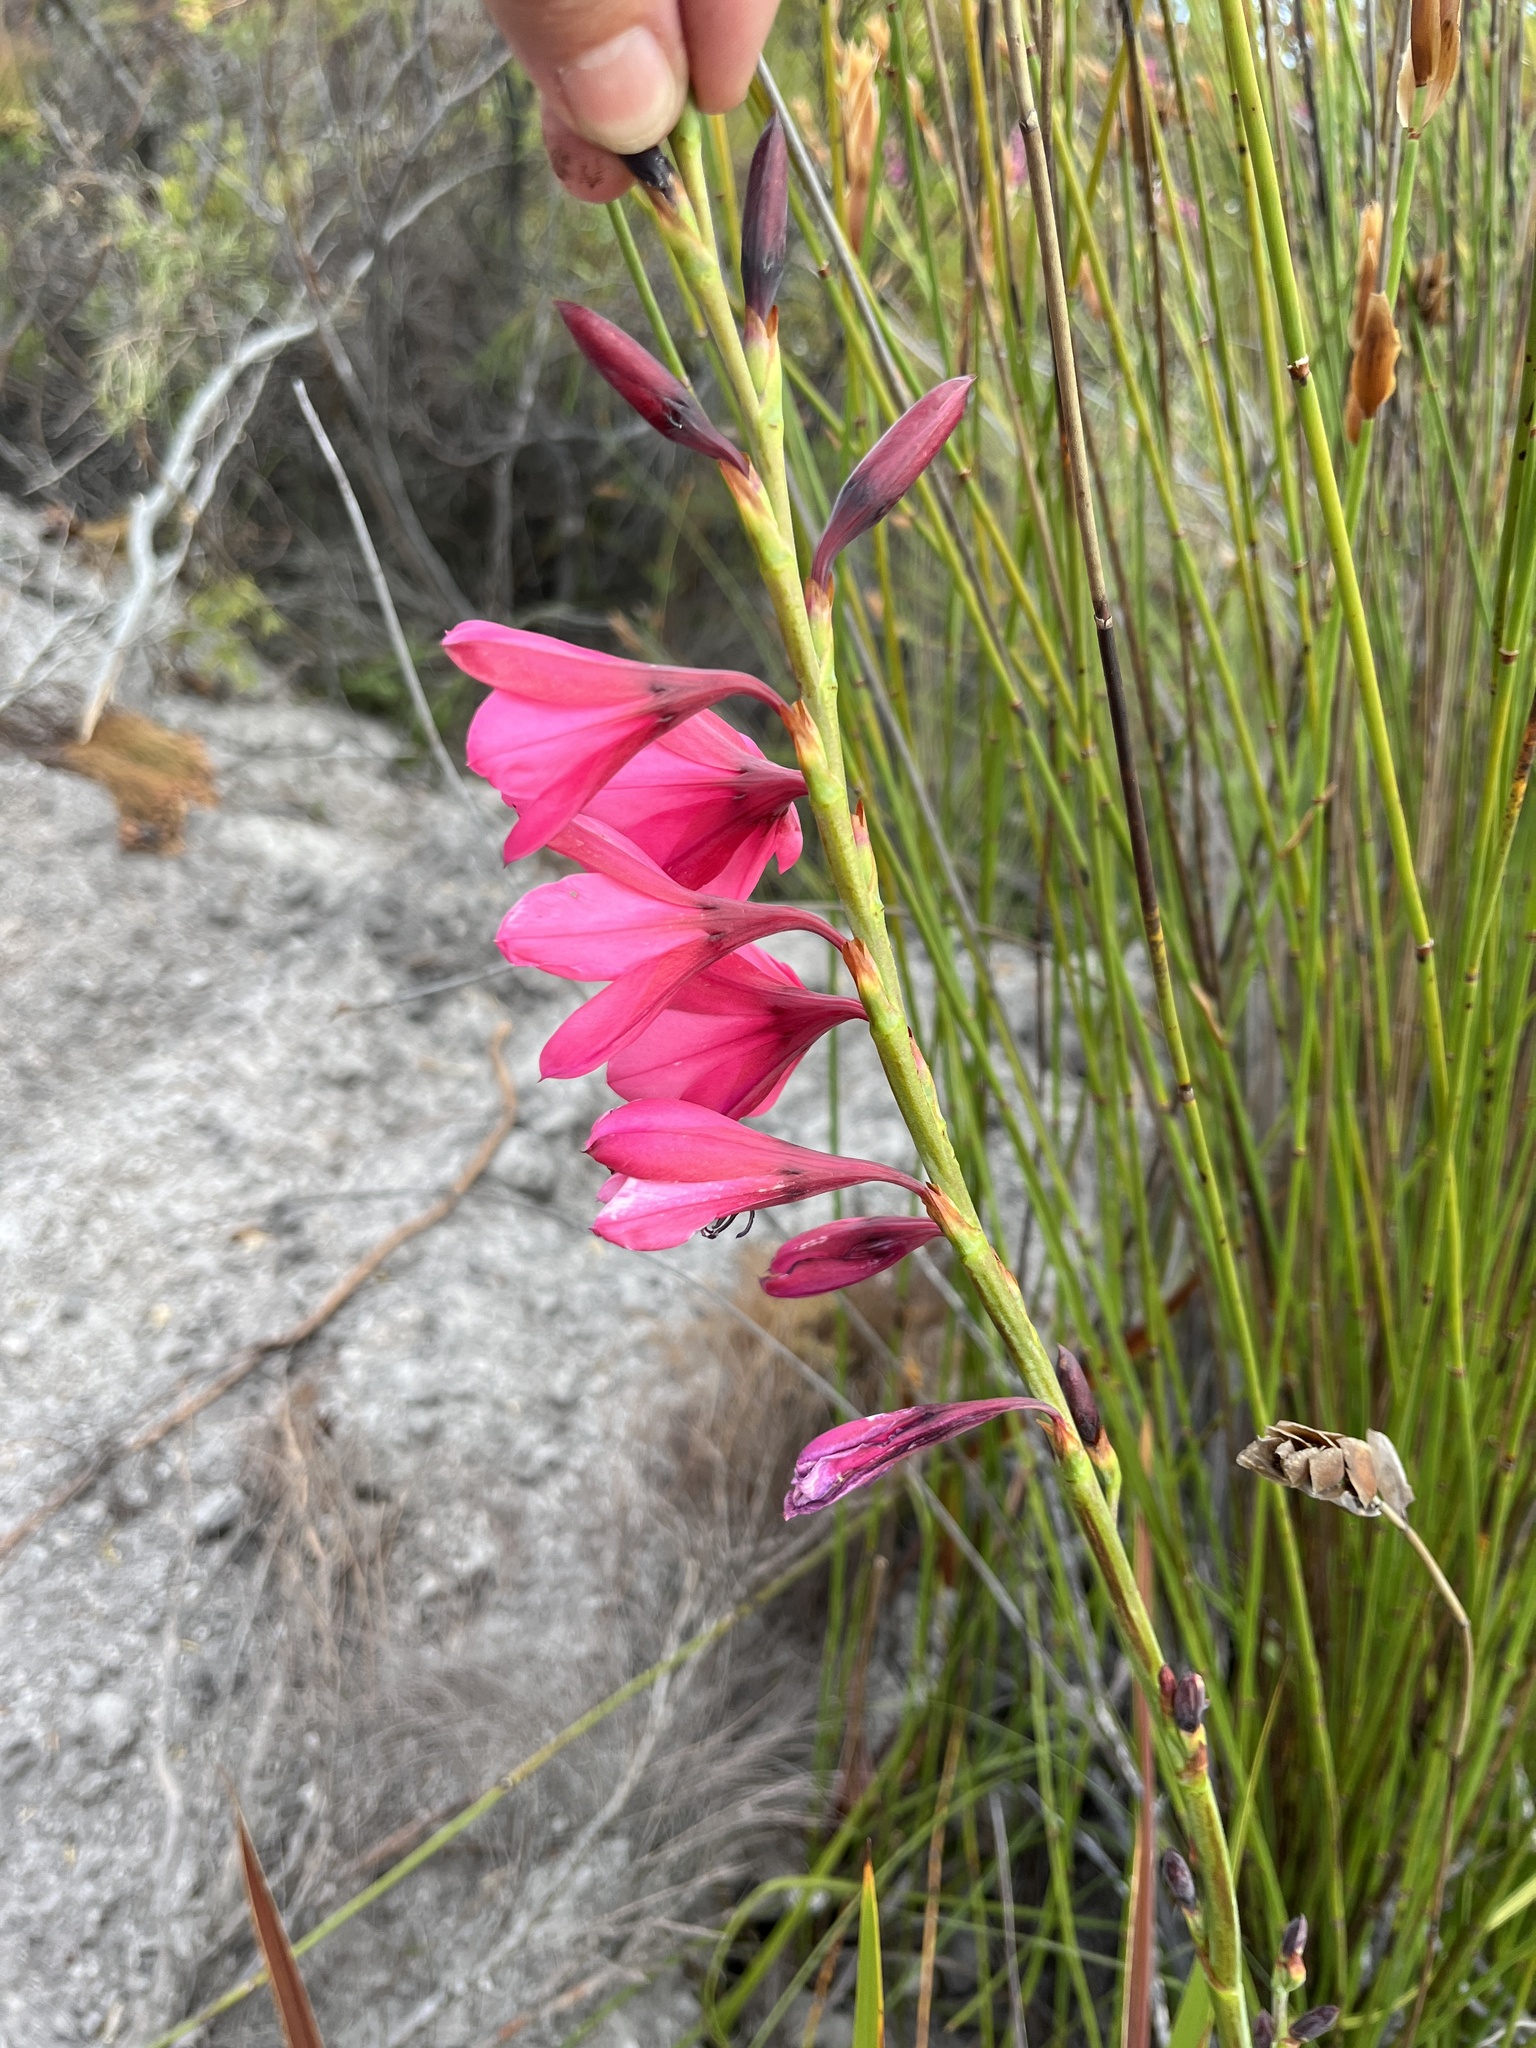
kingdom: Plantae
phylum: Tracheophyta
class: Liliopsida
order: Asparagales
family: Iridaceae
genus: Watsonia
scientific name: Watsonia rogersii
